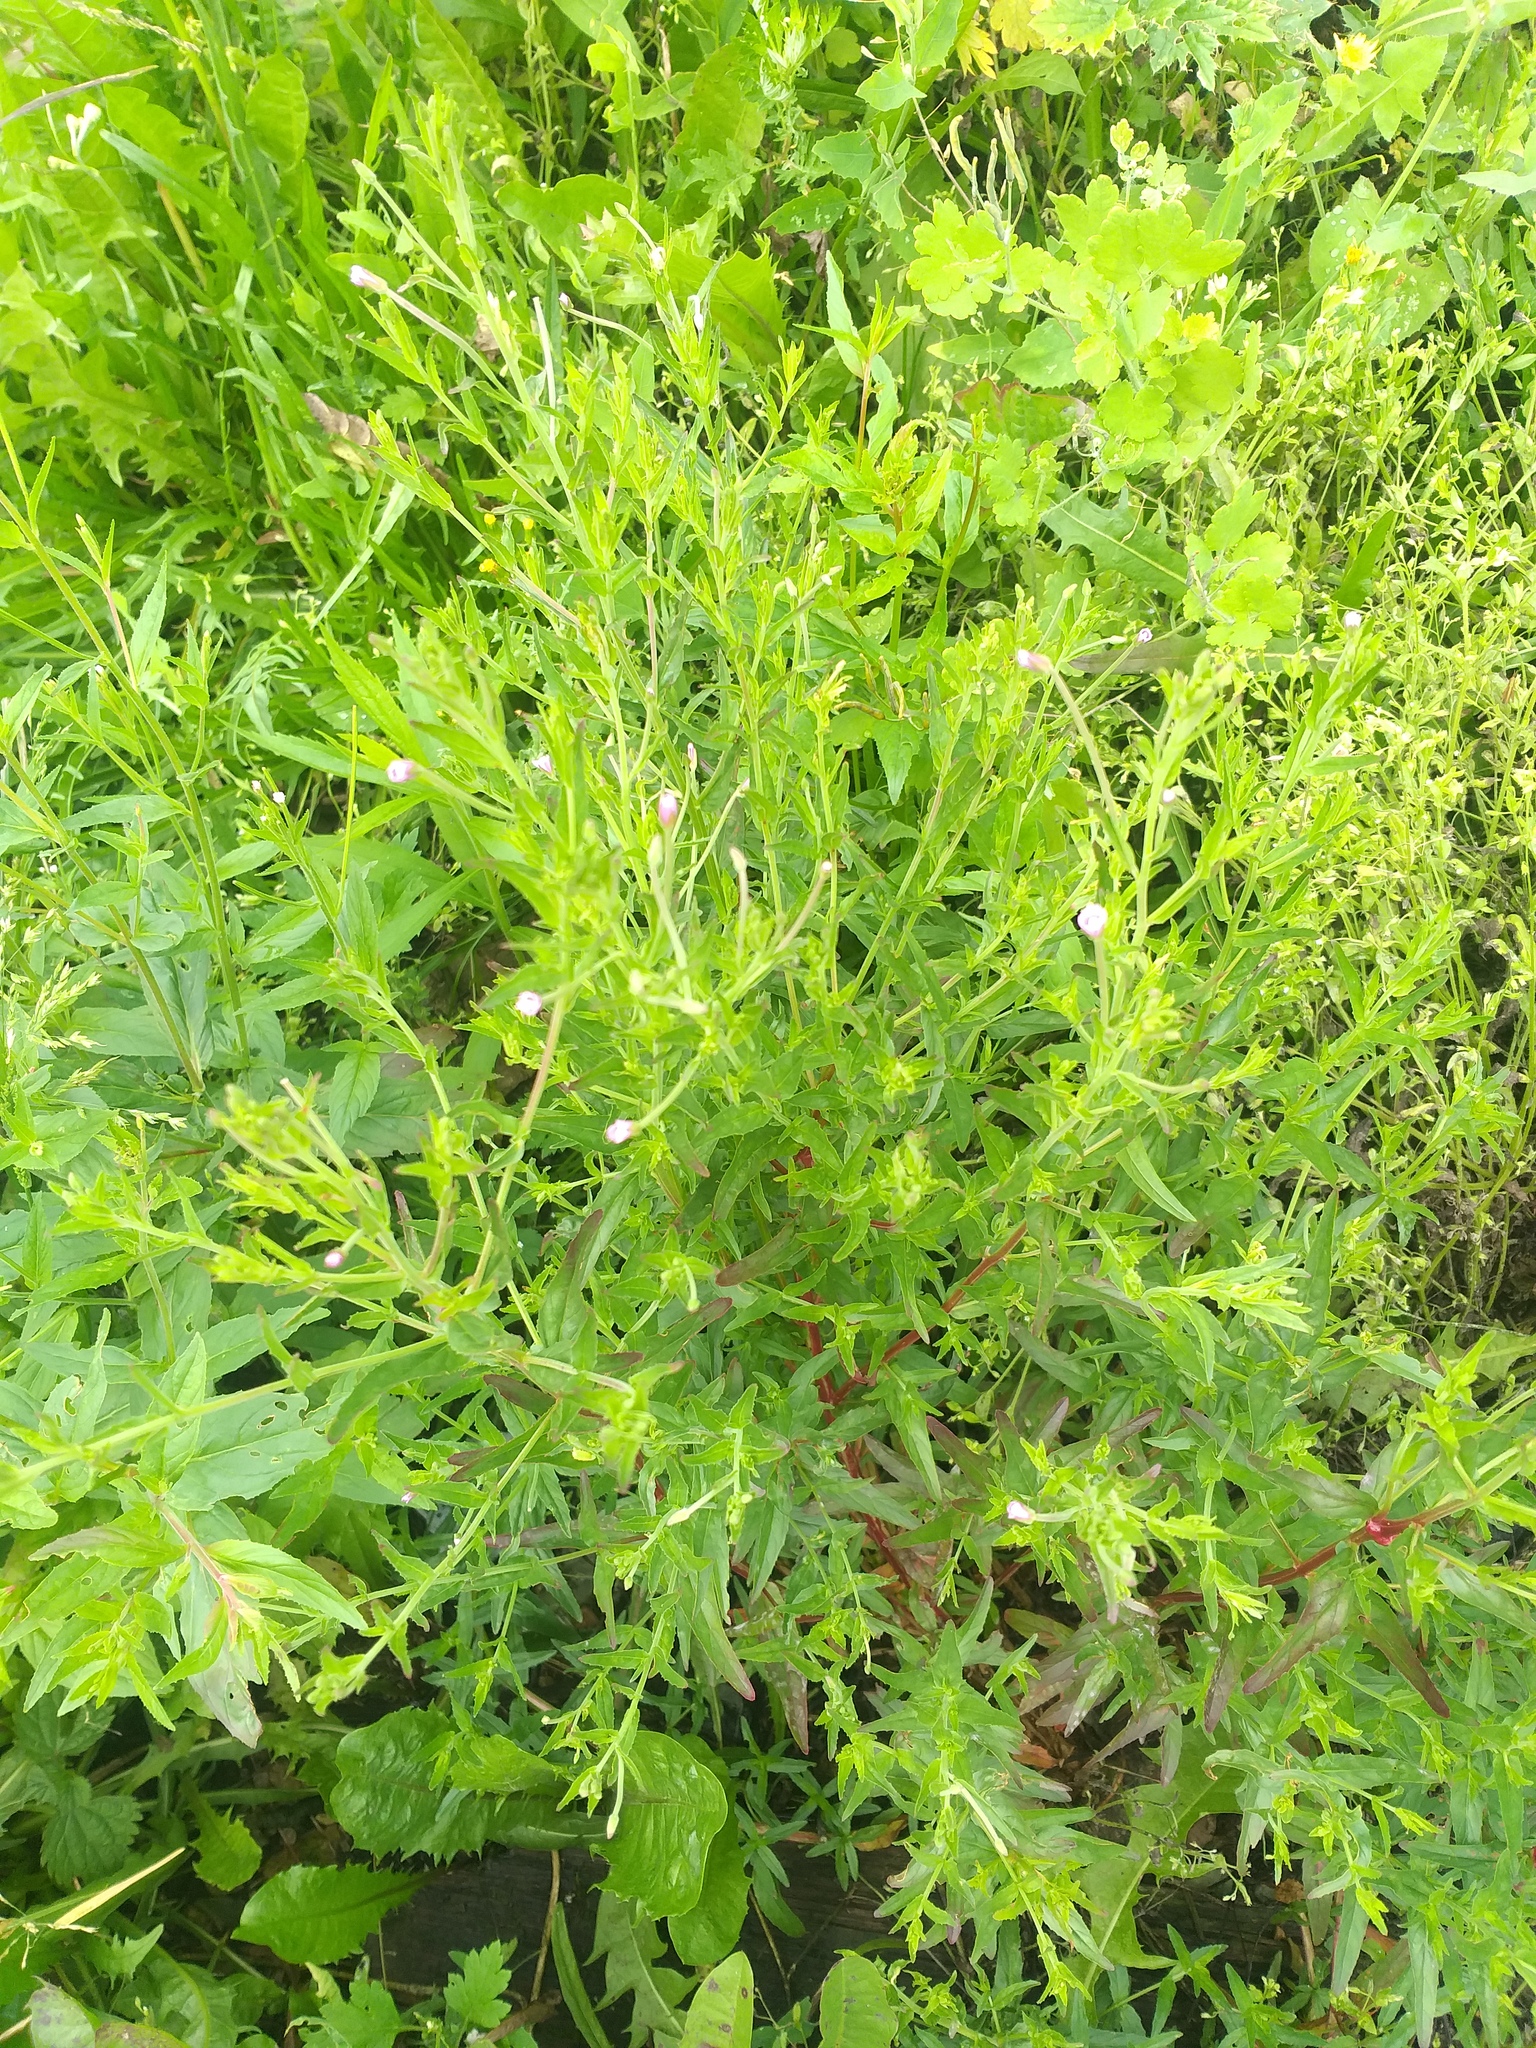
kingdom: Plantae
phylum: Tracheophyta
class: Magnoliopsida
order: Myrtales
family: Onagraceae
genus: Epilobium
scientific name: Epilobium tetragonum
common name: Square-stemmed willowherb
